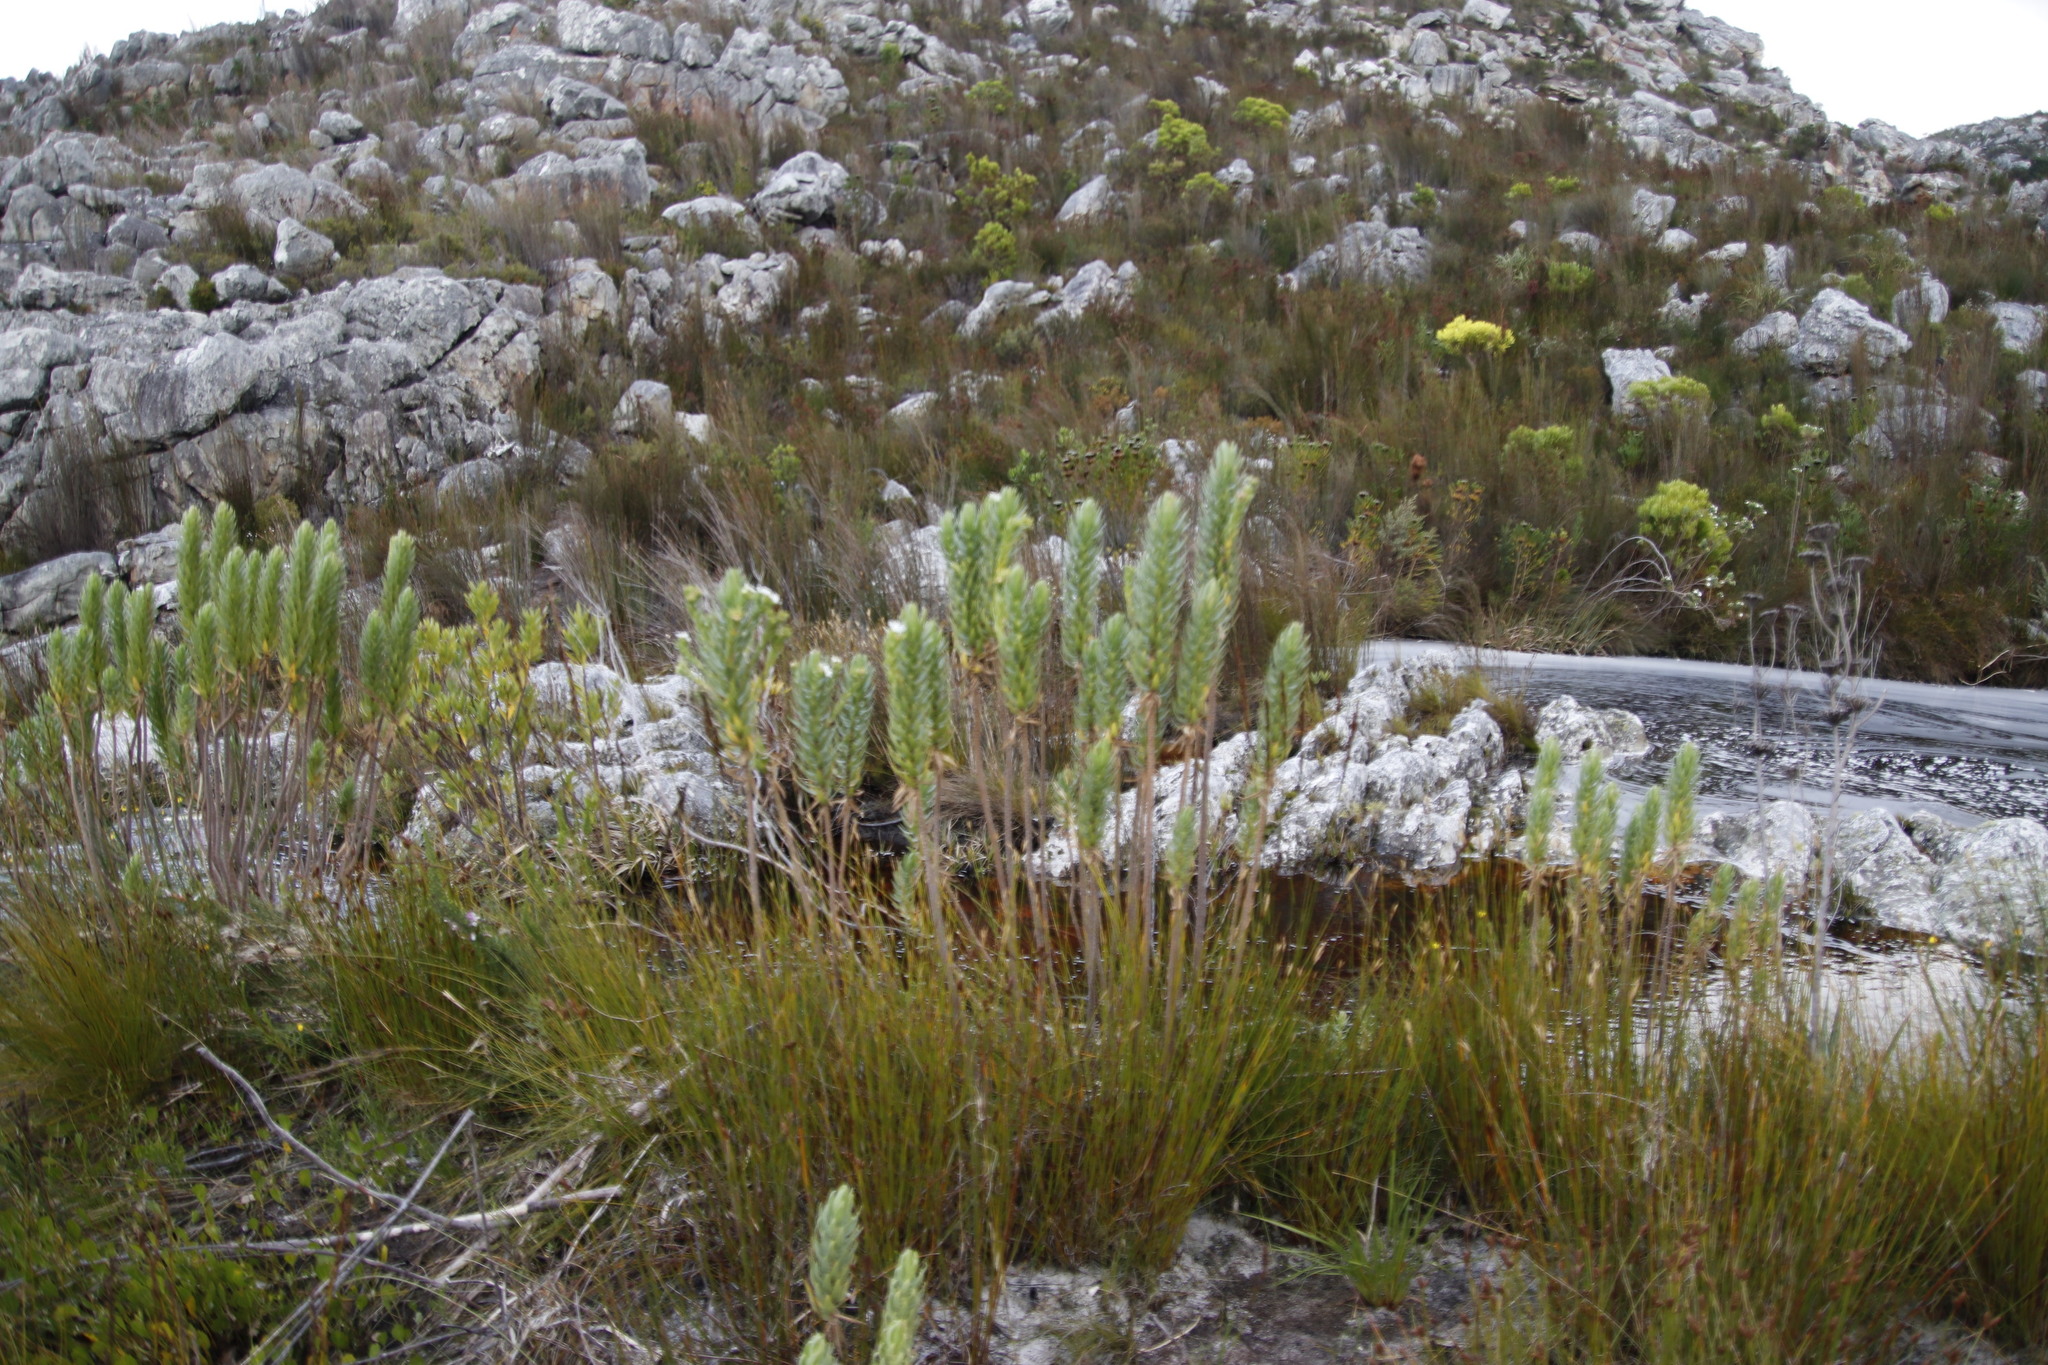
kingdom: Plantae
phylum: Tracheophyta
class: Magnoliopsida
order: Asterales
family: Asteraceae
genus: Osmitopsis
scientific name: Osmitopsis asteriscoides
